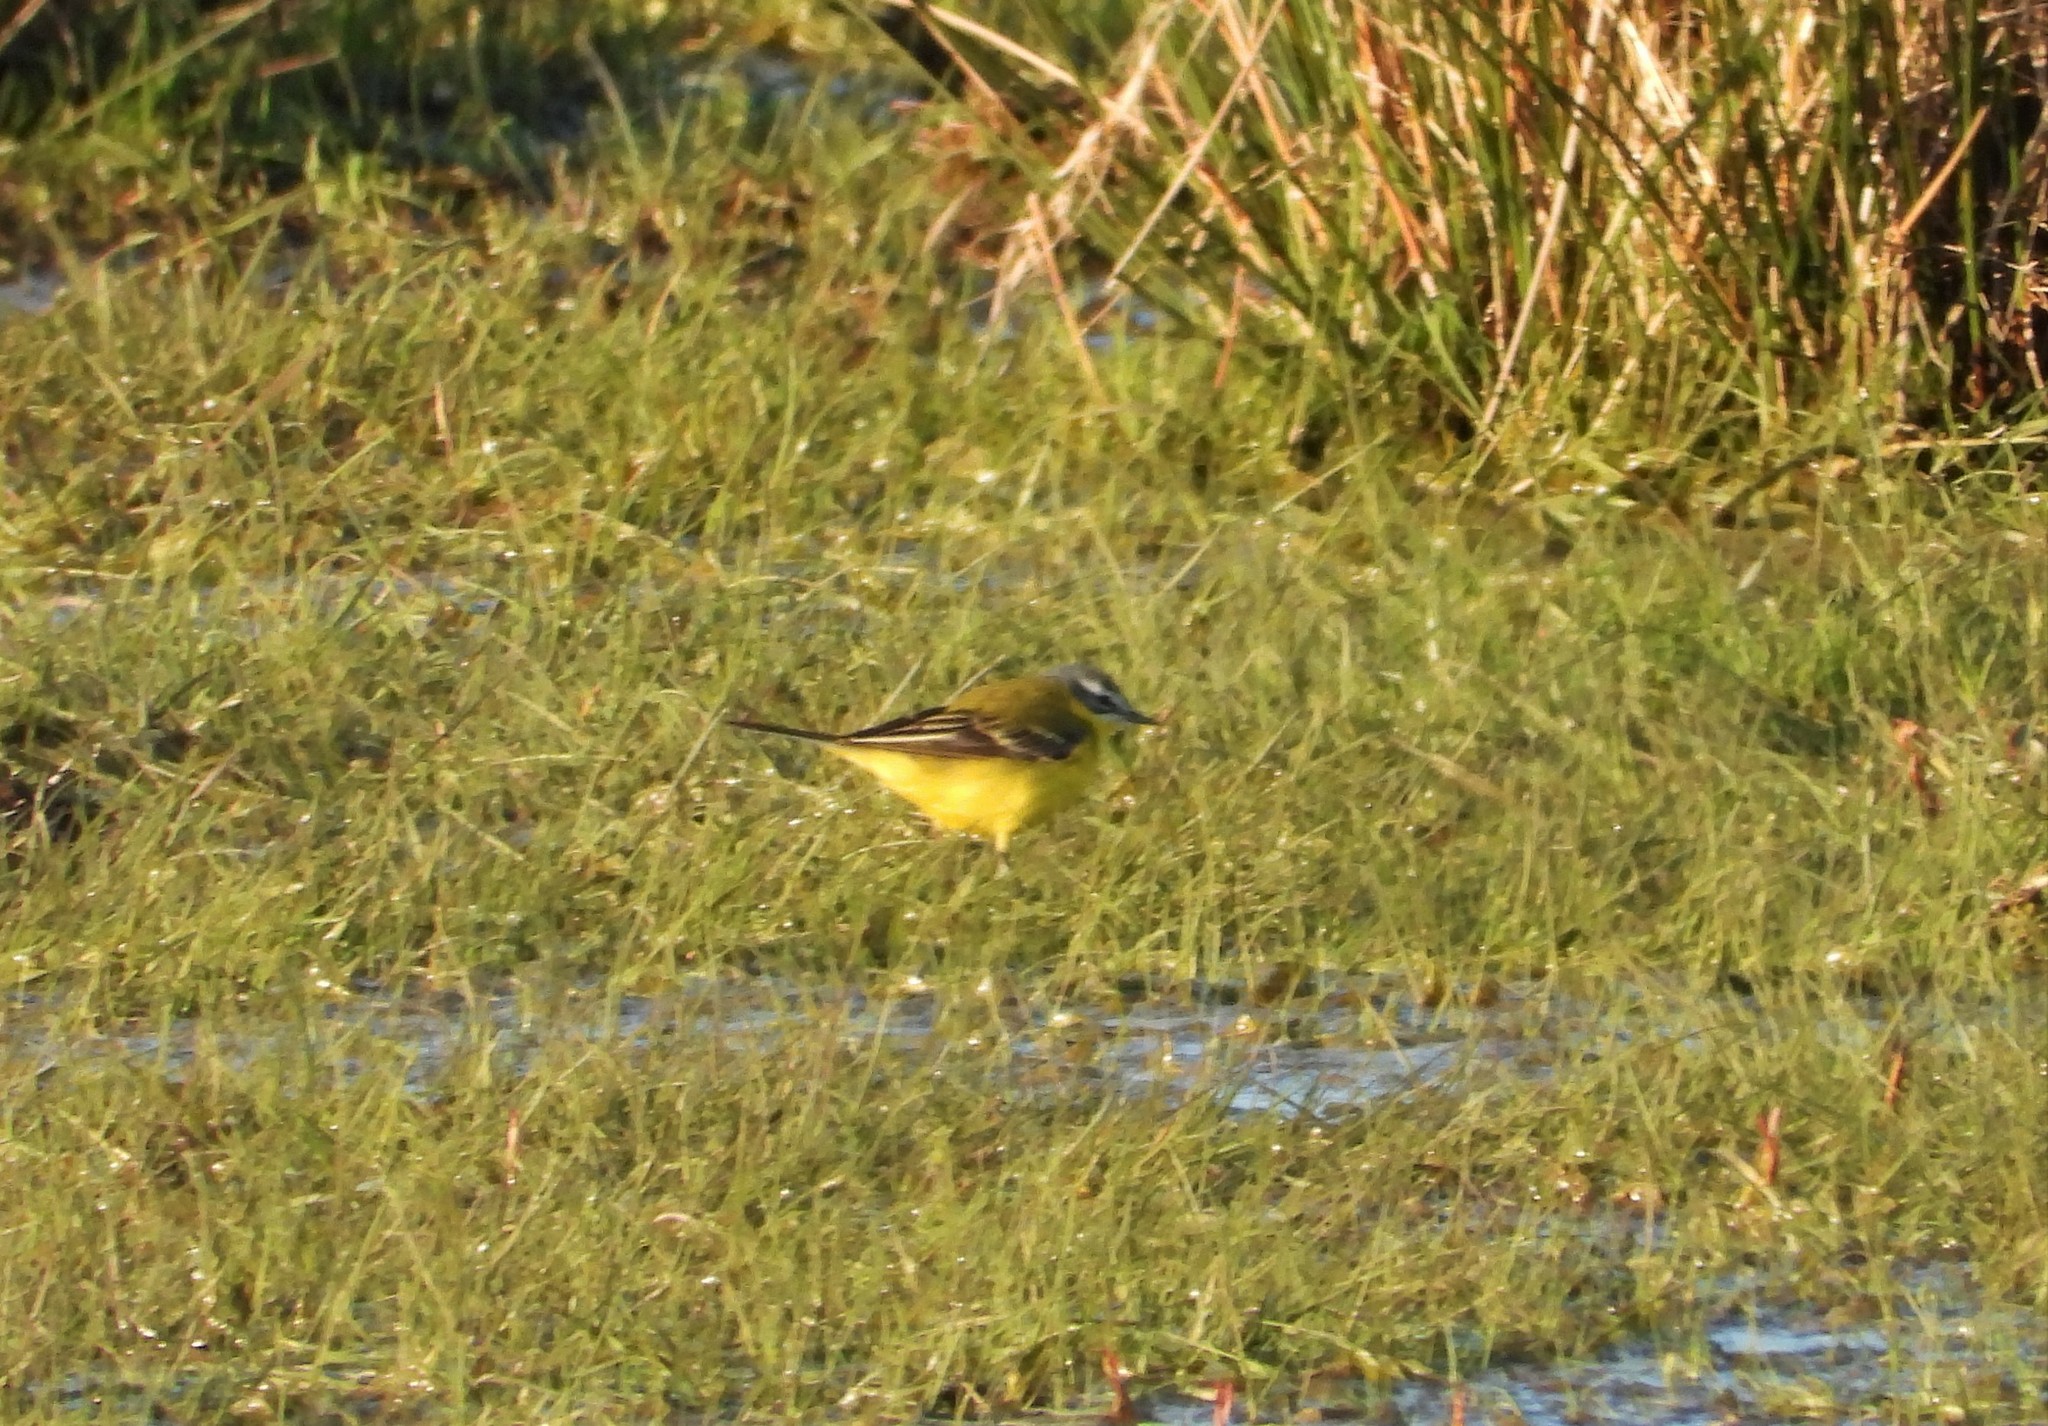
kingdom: Animalia
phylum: Chordata
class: Aves
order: Passeriformes
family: Motacillidae
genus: Motacilla
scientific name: Motacilla flava
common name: Western yellow wagtail
